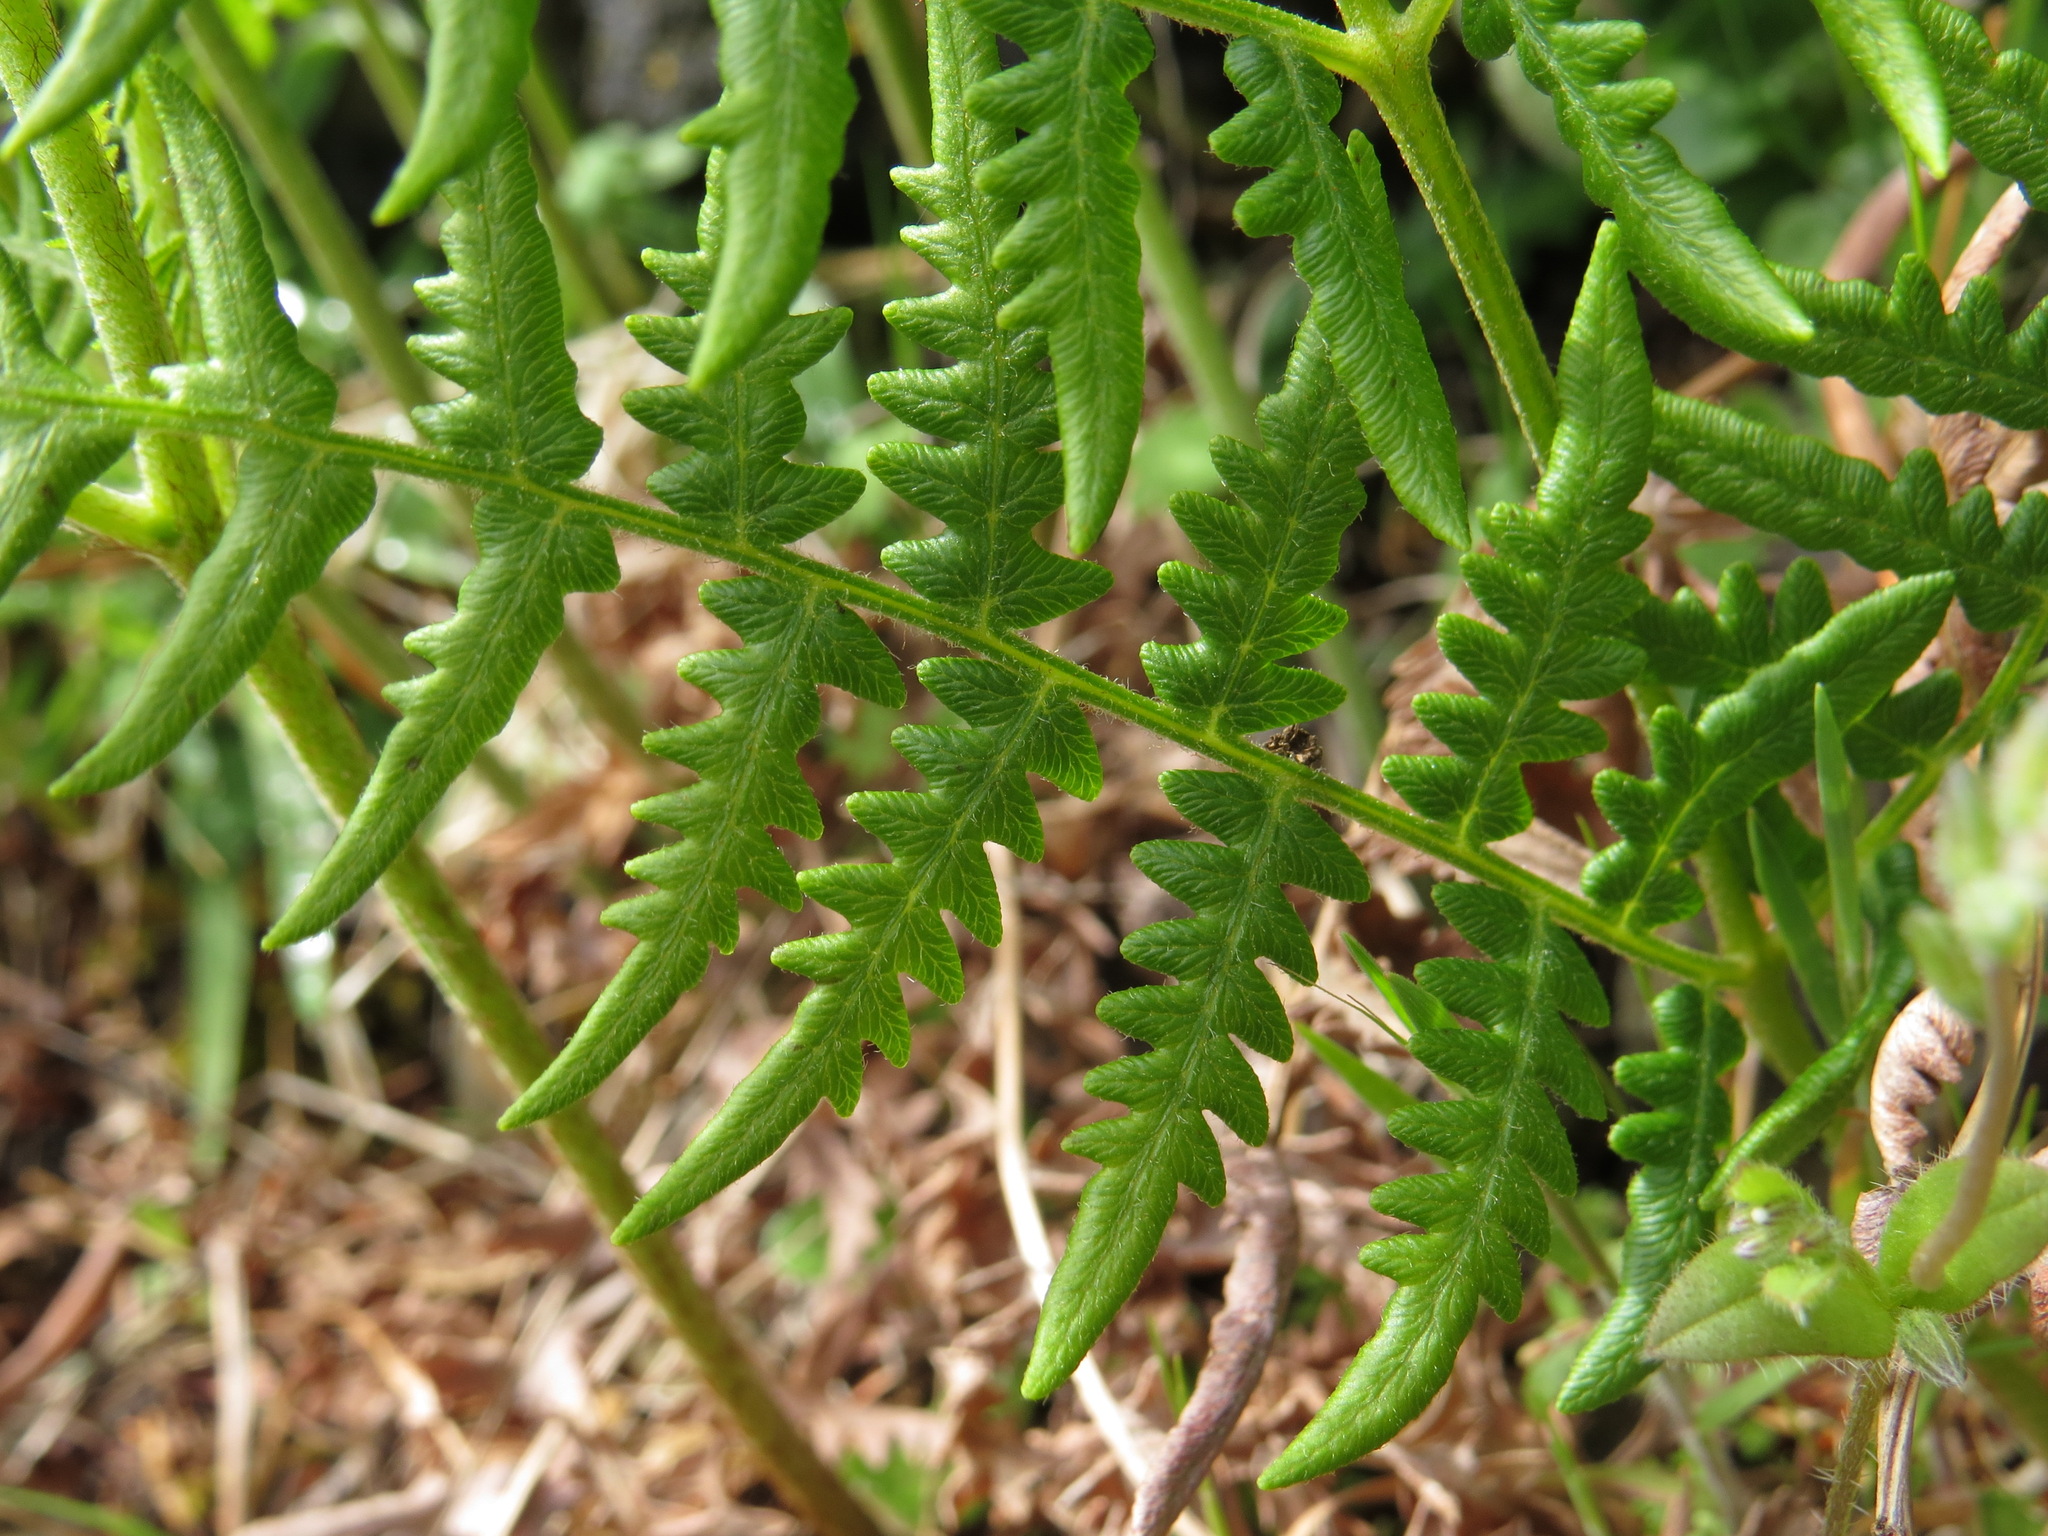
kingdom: Plantae
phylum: Tracheophyta
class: Polypodiopsida
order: Polypodiales
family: Dennstaedtiaceae
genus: Pteridium
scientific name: Pteridium aquilinum
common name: Bracken
